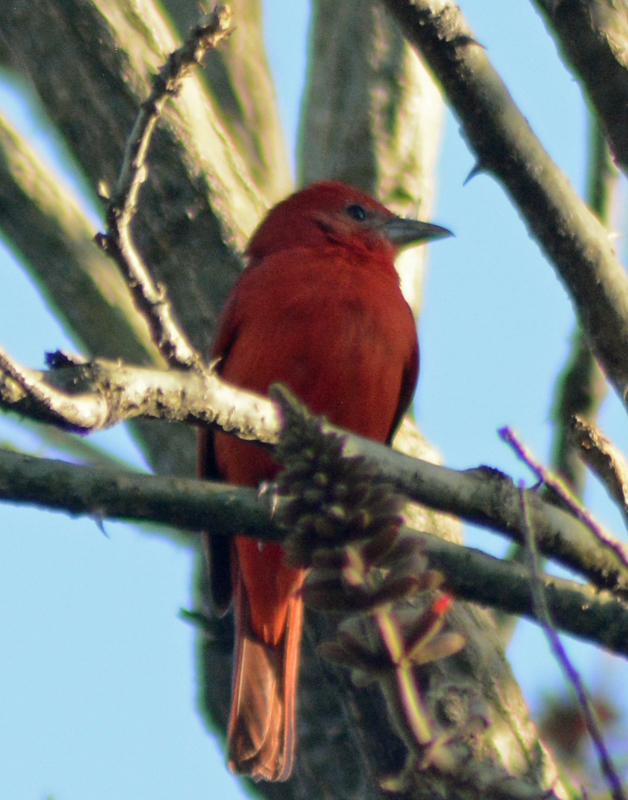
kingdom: Animalia
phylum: Chordata
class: Aves
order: Passeriformes
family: Cardinalidae
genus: Piranga
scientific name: Piranga rubra
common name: Summer tanager
